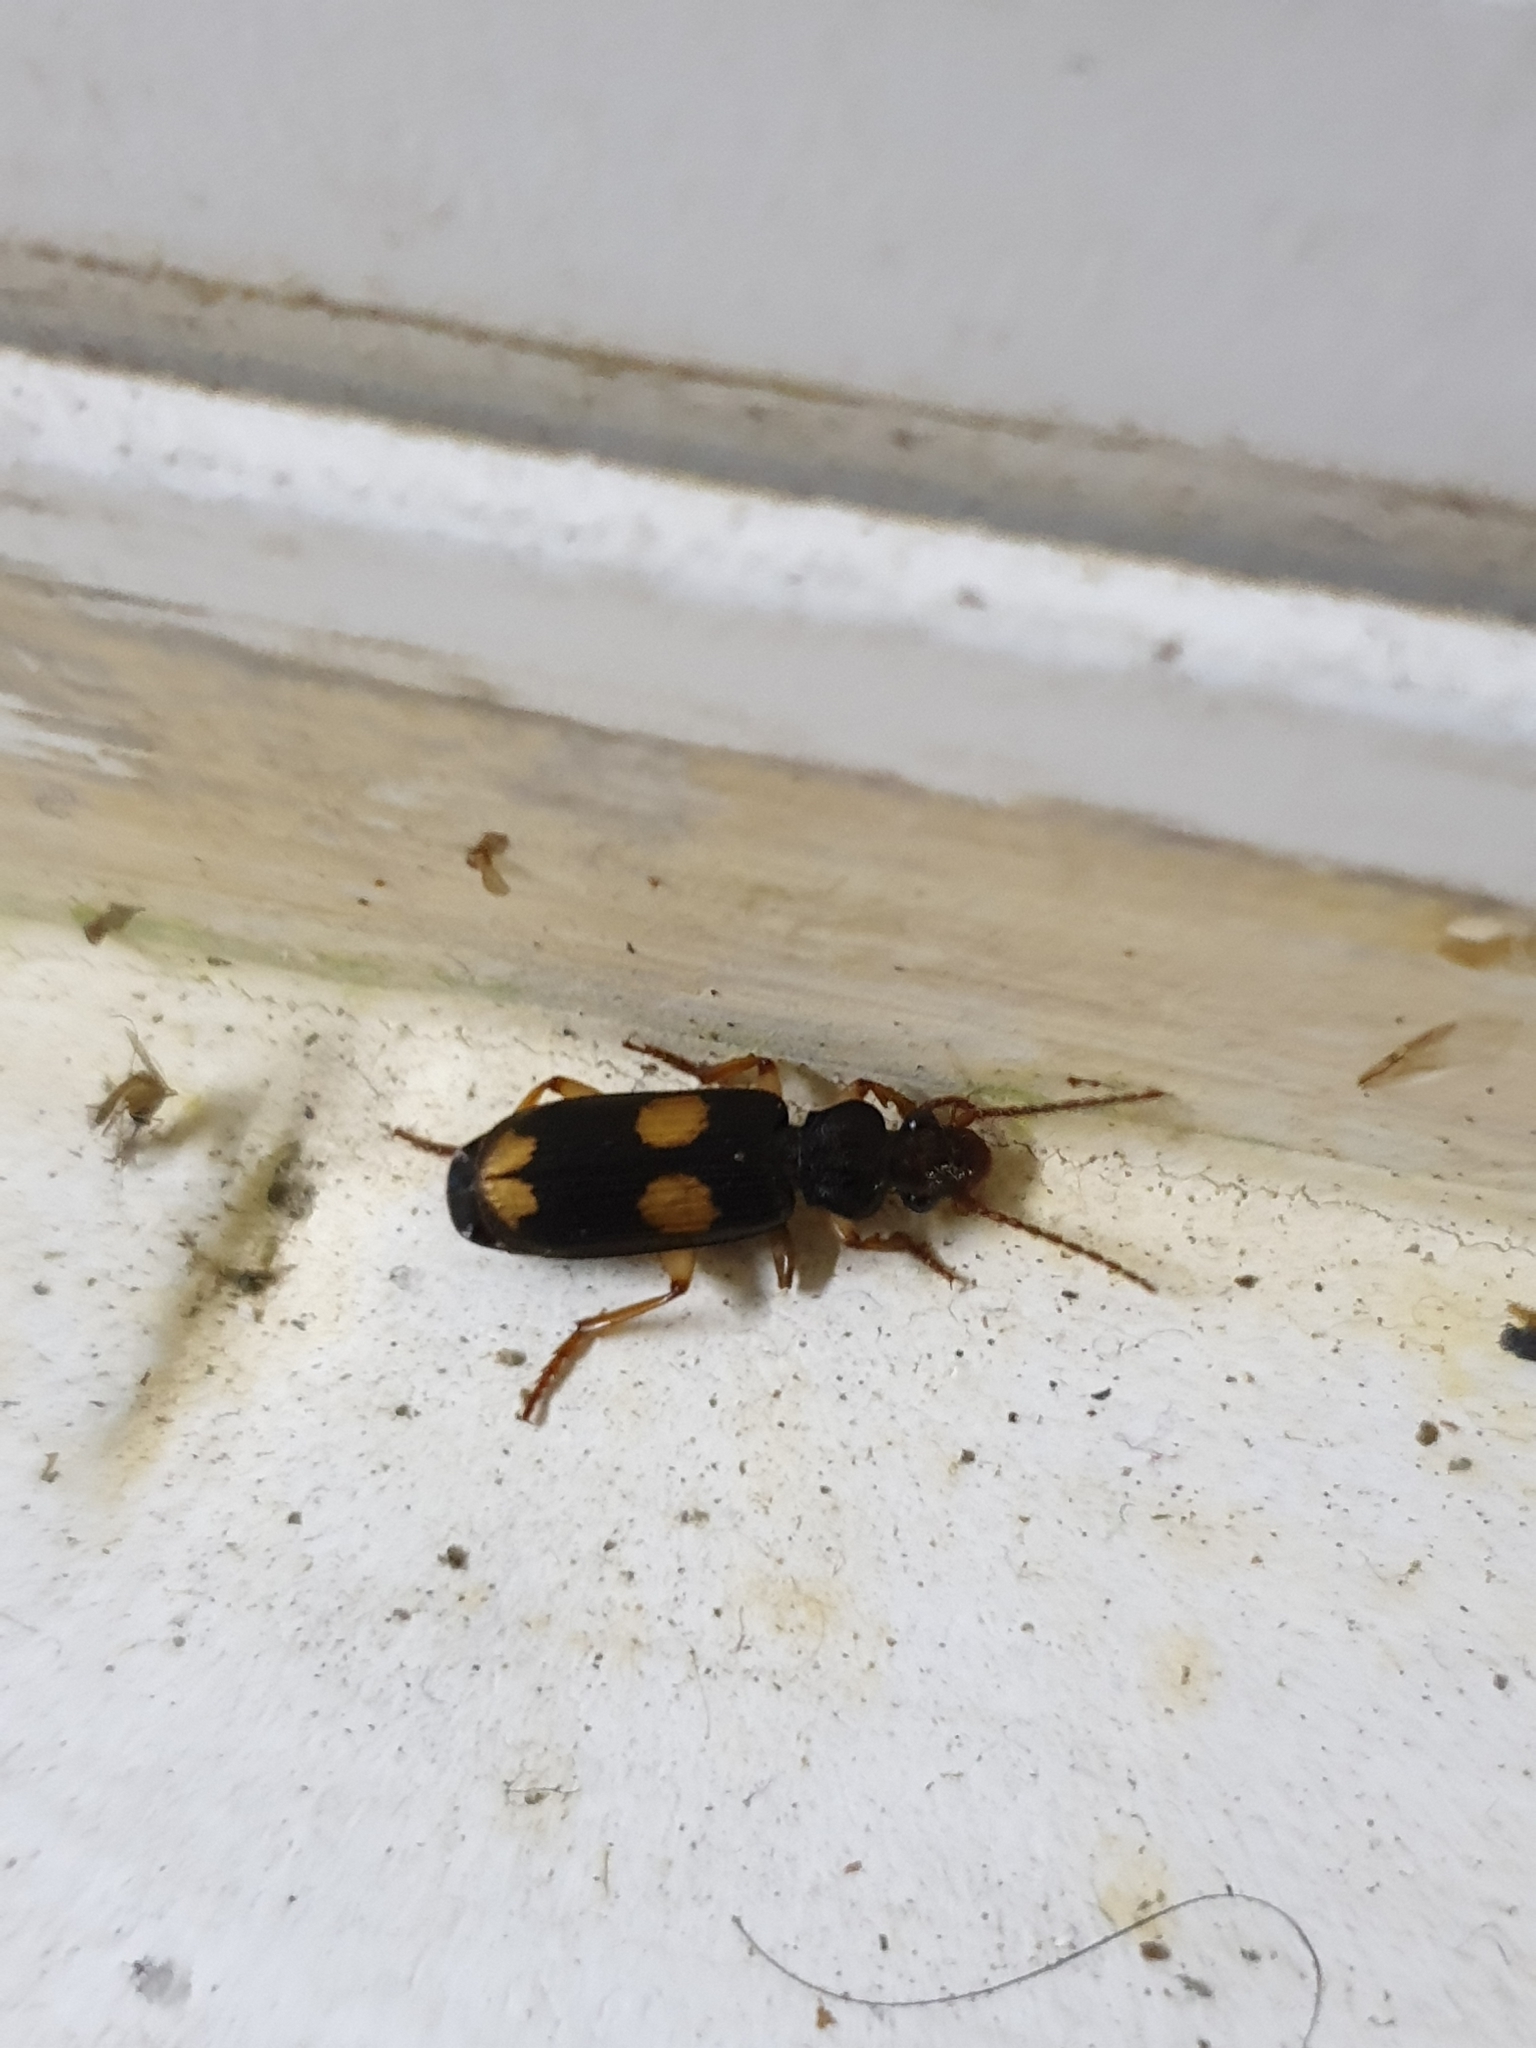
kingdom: Animalia
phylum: Arthropoda
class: Insecta
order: Coleoptera
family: Carabidae
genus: Macrocheilus
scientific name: Macrocheilus bensoni
